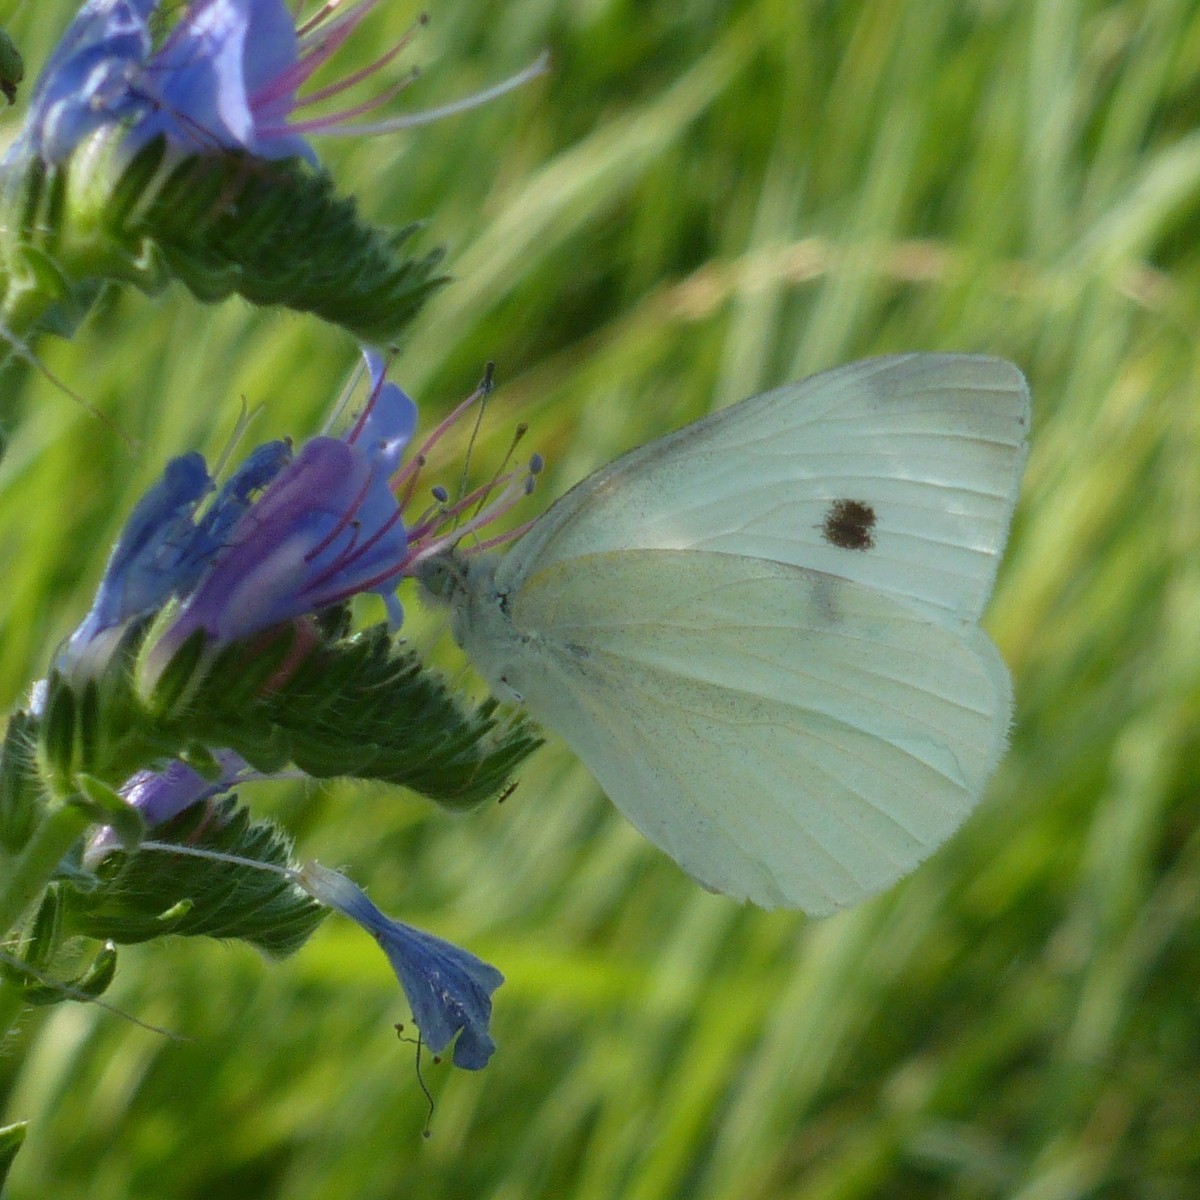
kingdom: Animalia
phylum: Arthropoda
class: Insecta
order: Lepidoptera
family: Pieridae
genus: Pieris
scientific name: Pieris rapae
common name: Small white
